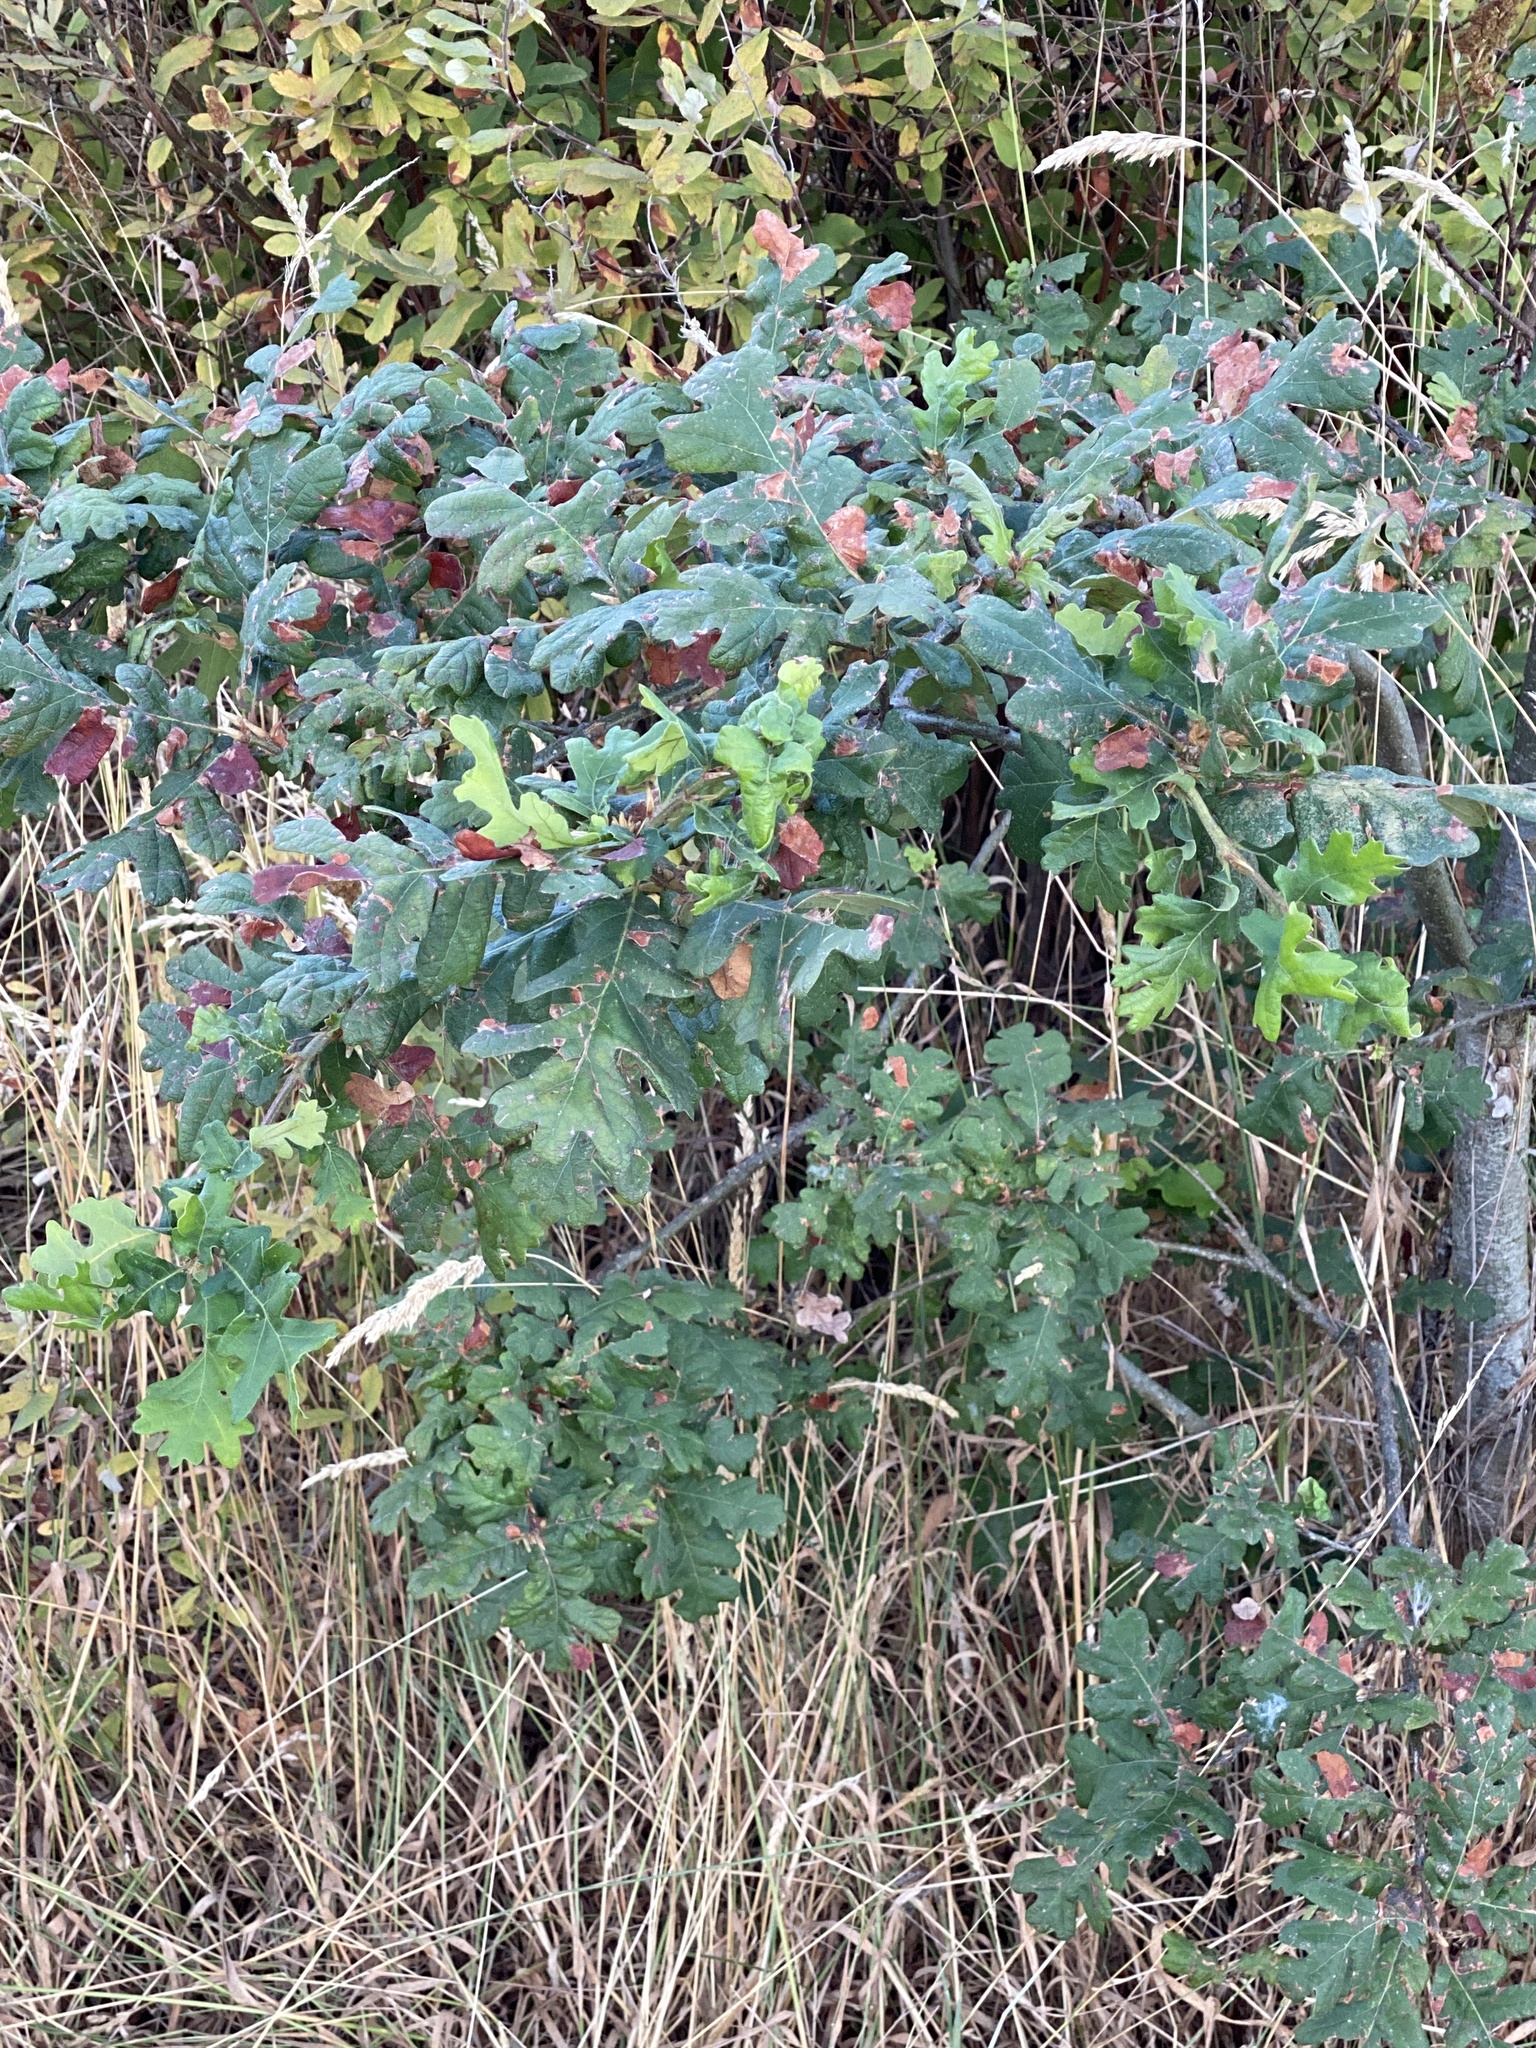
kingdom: Plantae
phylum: Tracheophyta
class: Magnoliopsida
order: Fagales
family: Fagaceae
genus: Quercus
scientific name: Quercus garryana
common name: Garry oak
